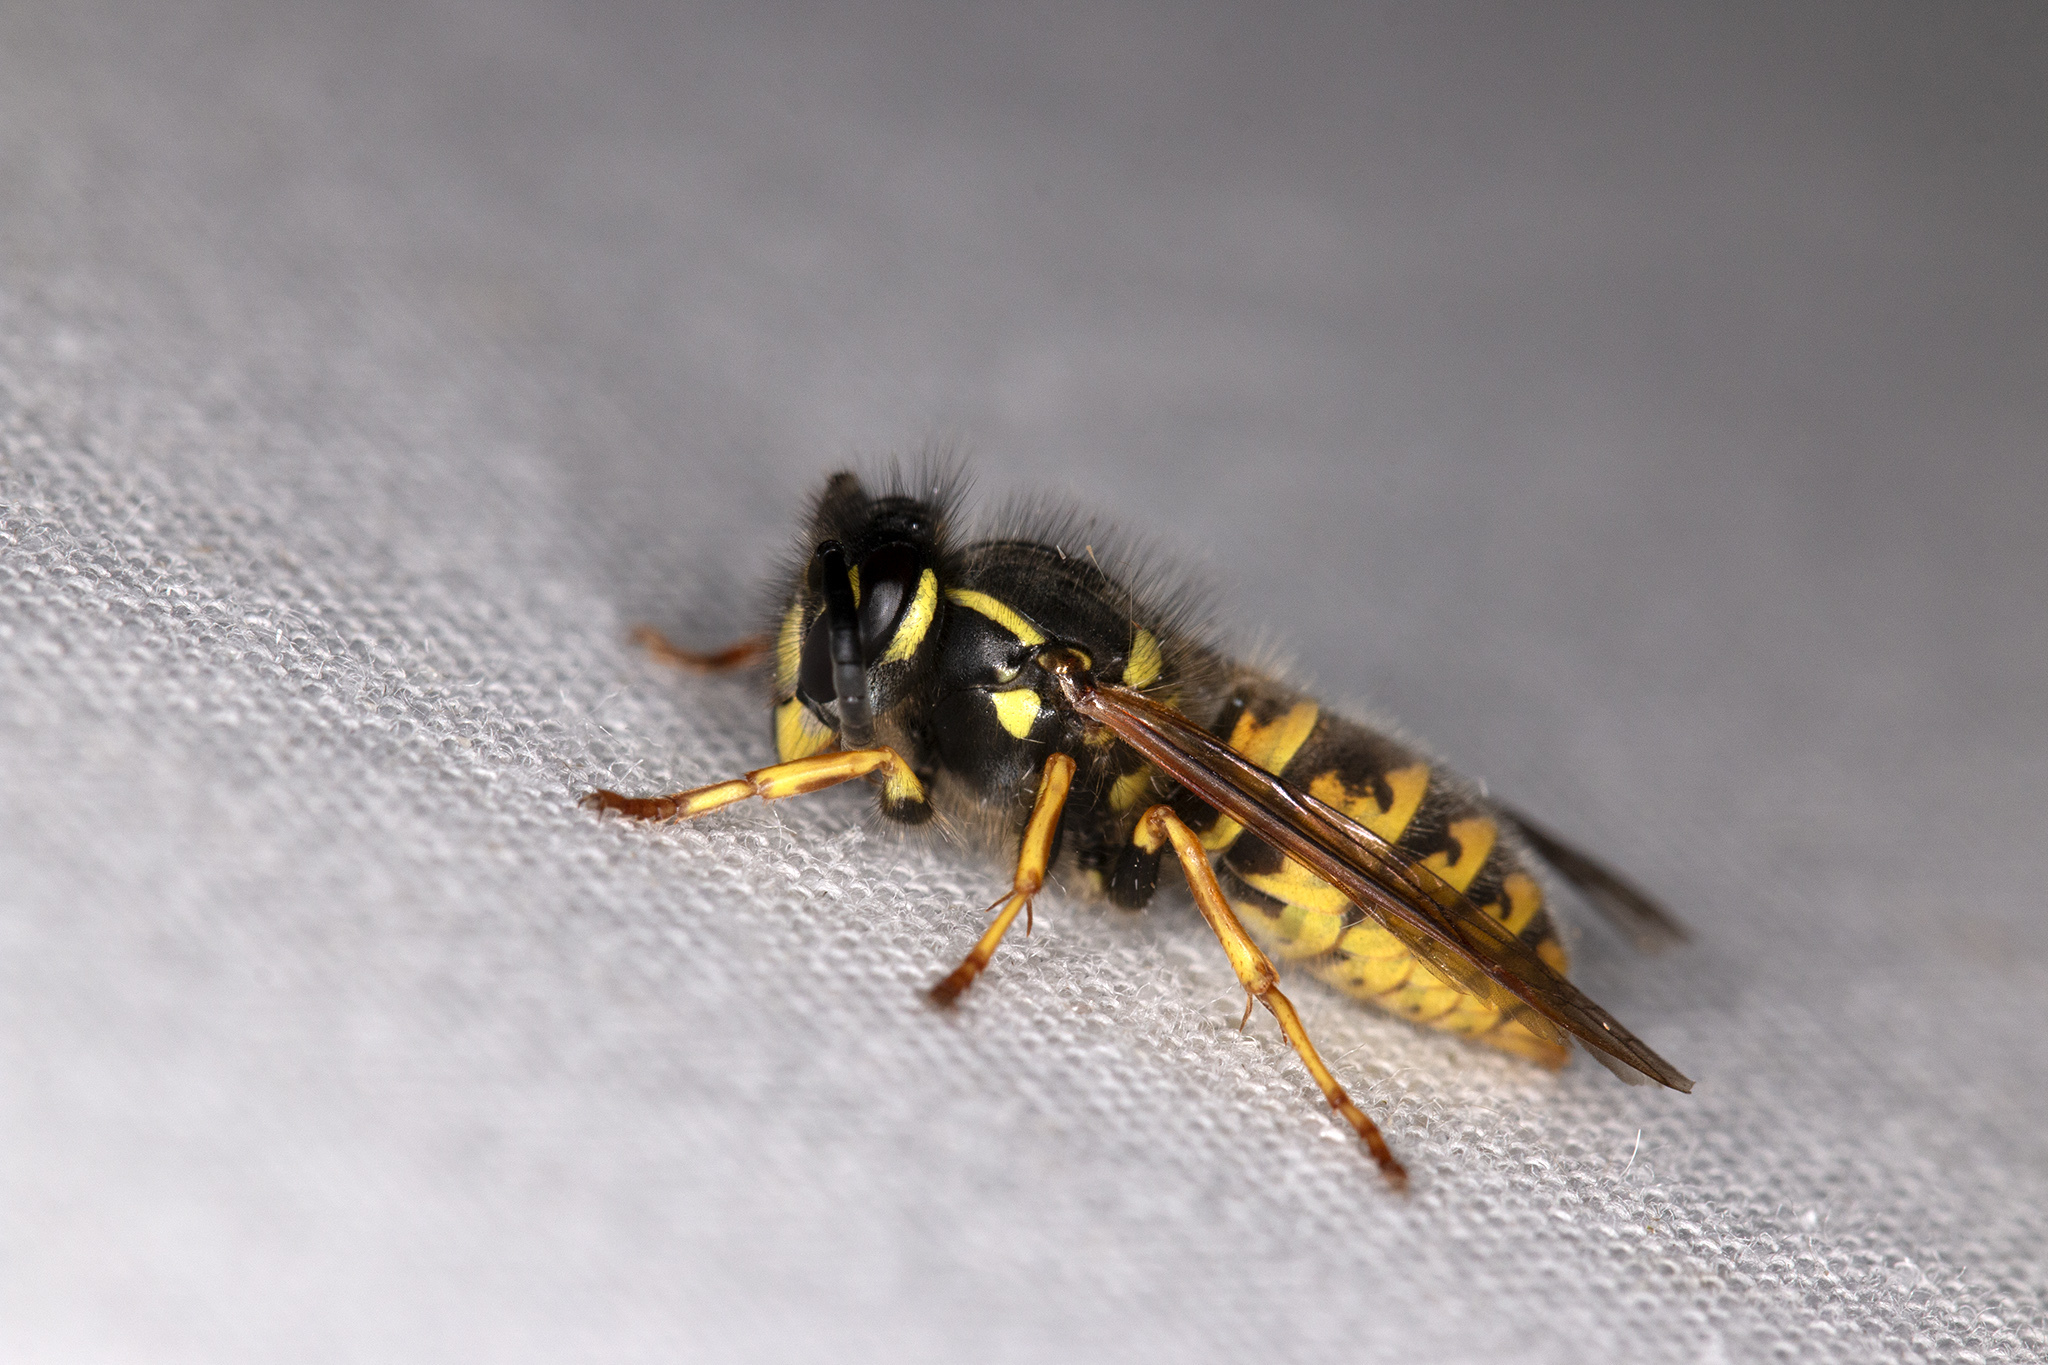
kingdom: Animalia
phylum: Arthropoda
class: Insecta
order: Hymenoptera
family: Vespidae
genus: Vespula
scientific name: Vespula vulgaris
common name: Common wasp
